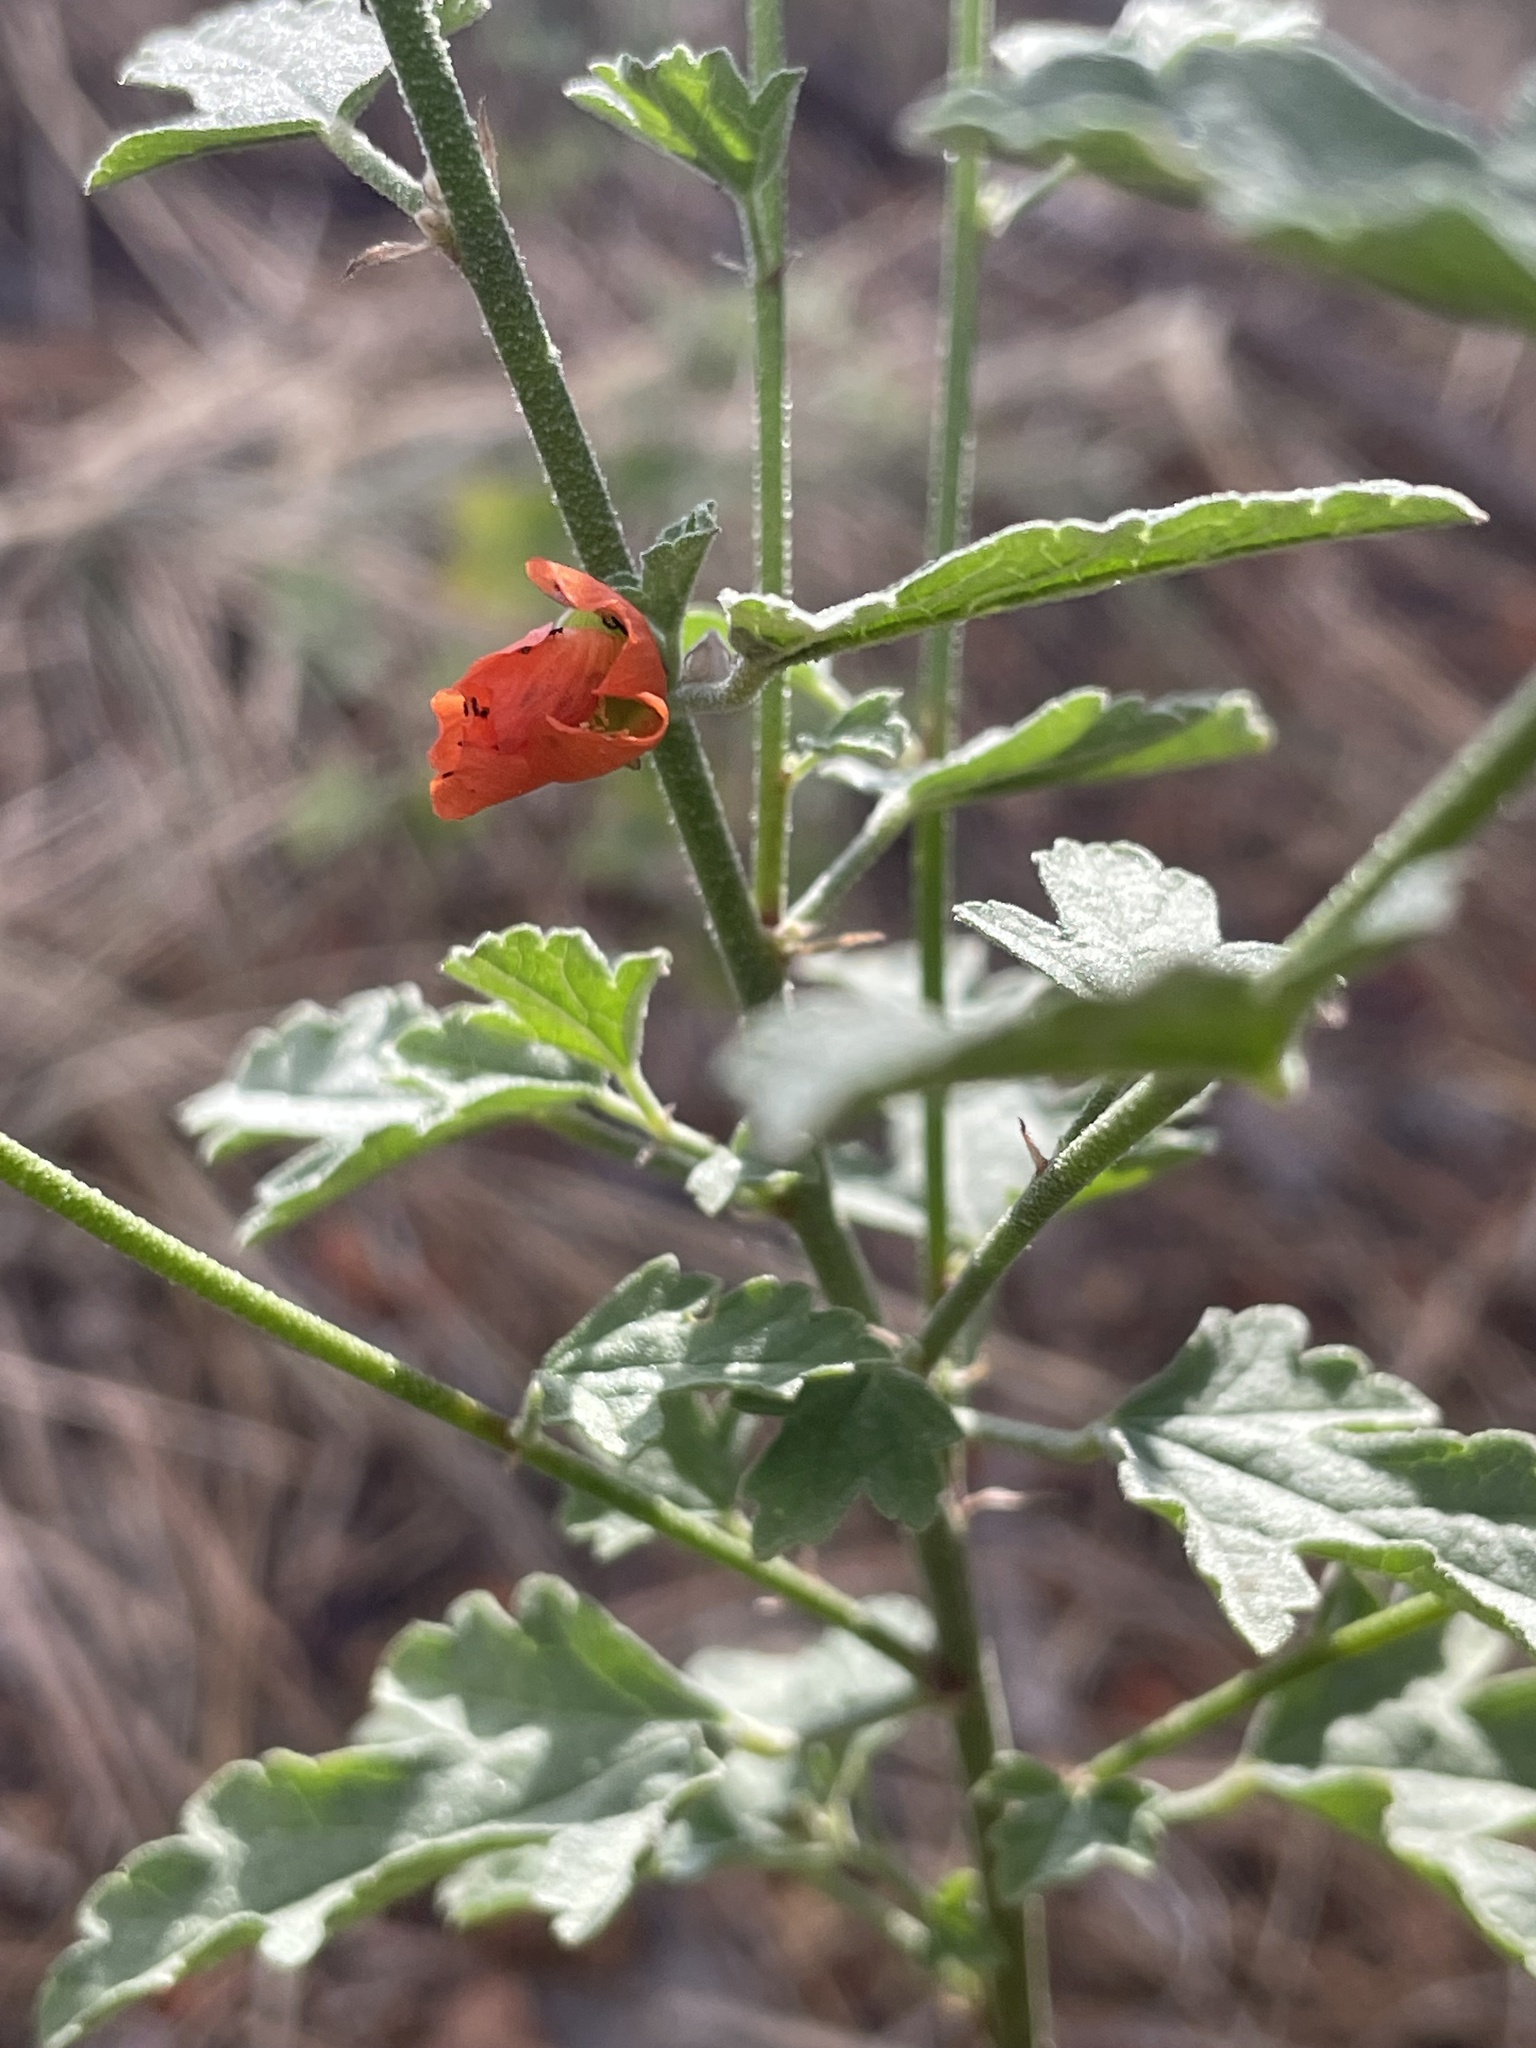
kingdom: Plantae
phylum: Tracheophyta
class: Magnoliopsida
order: Malvales
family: Malvaceae
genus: Sphaeralcea
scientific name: Sphaeralcea fendleri
